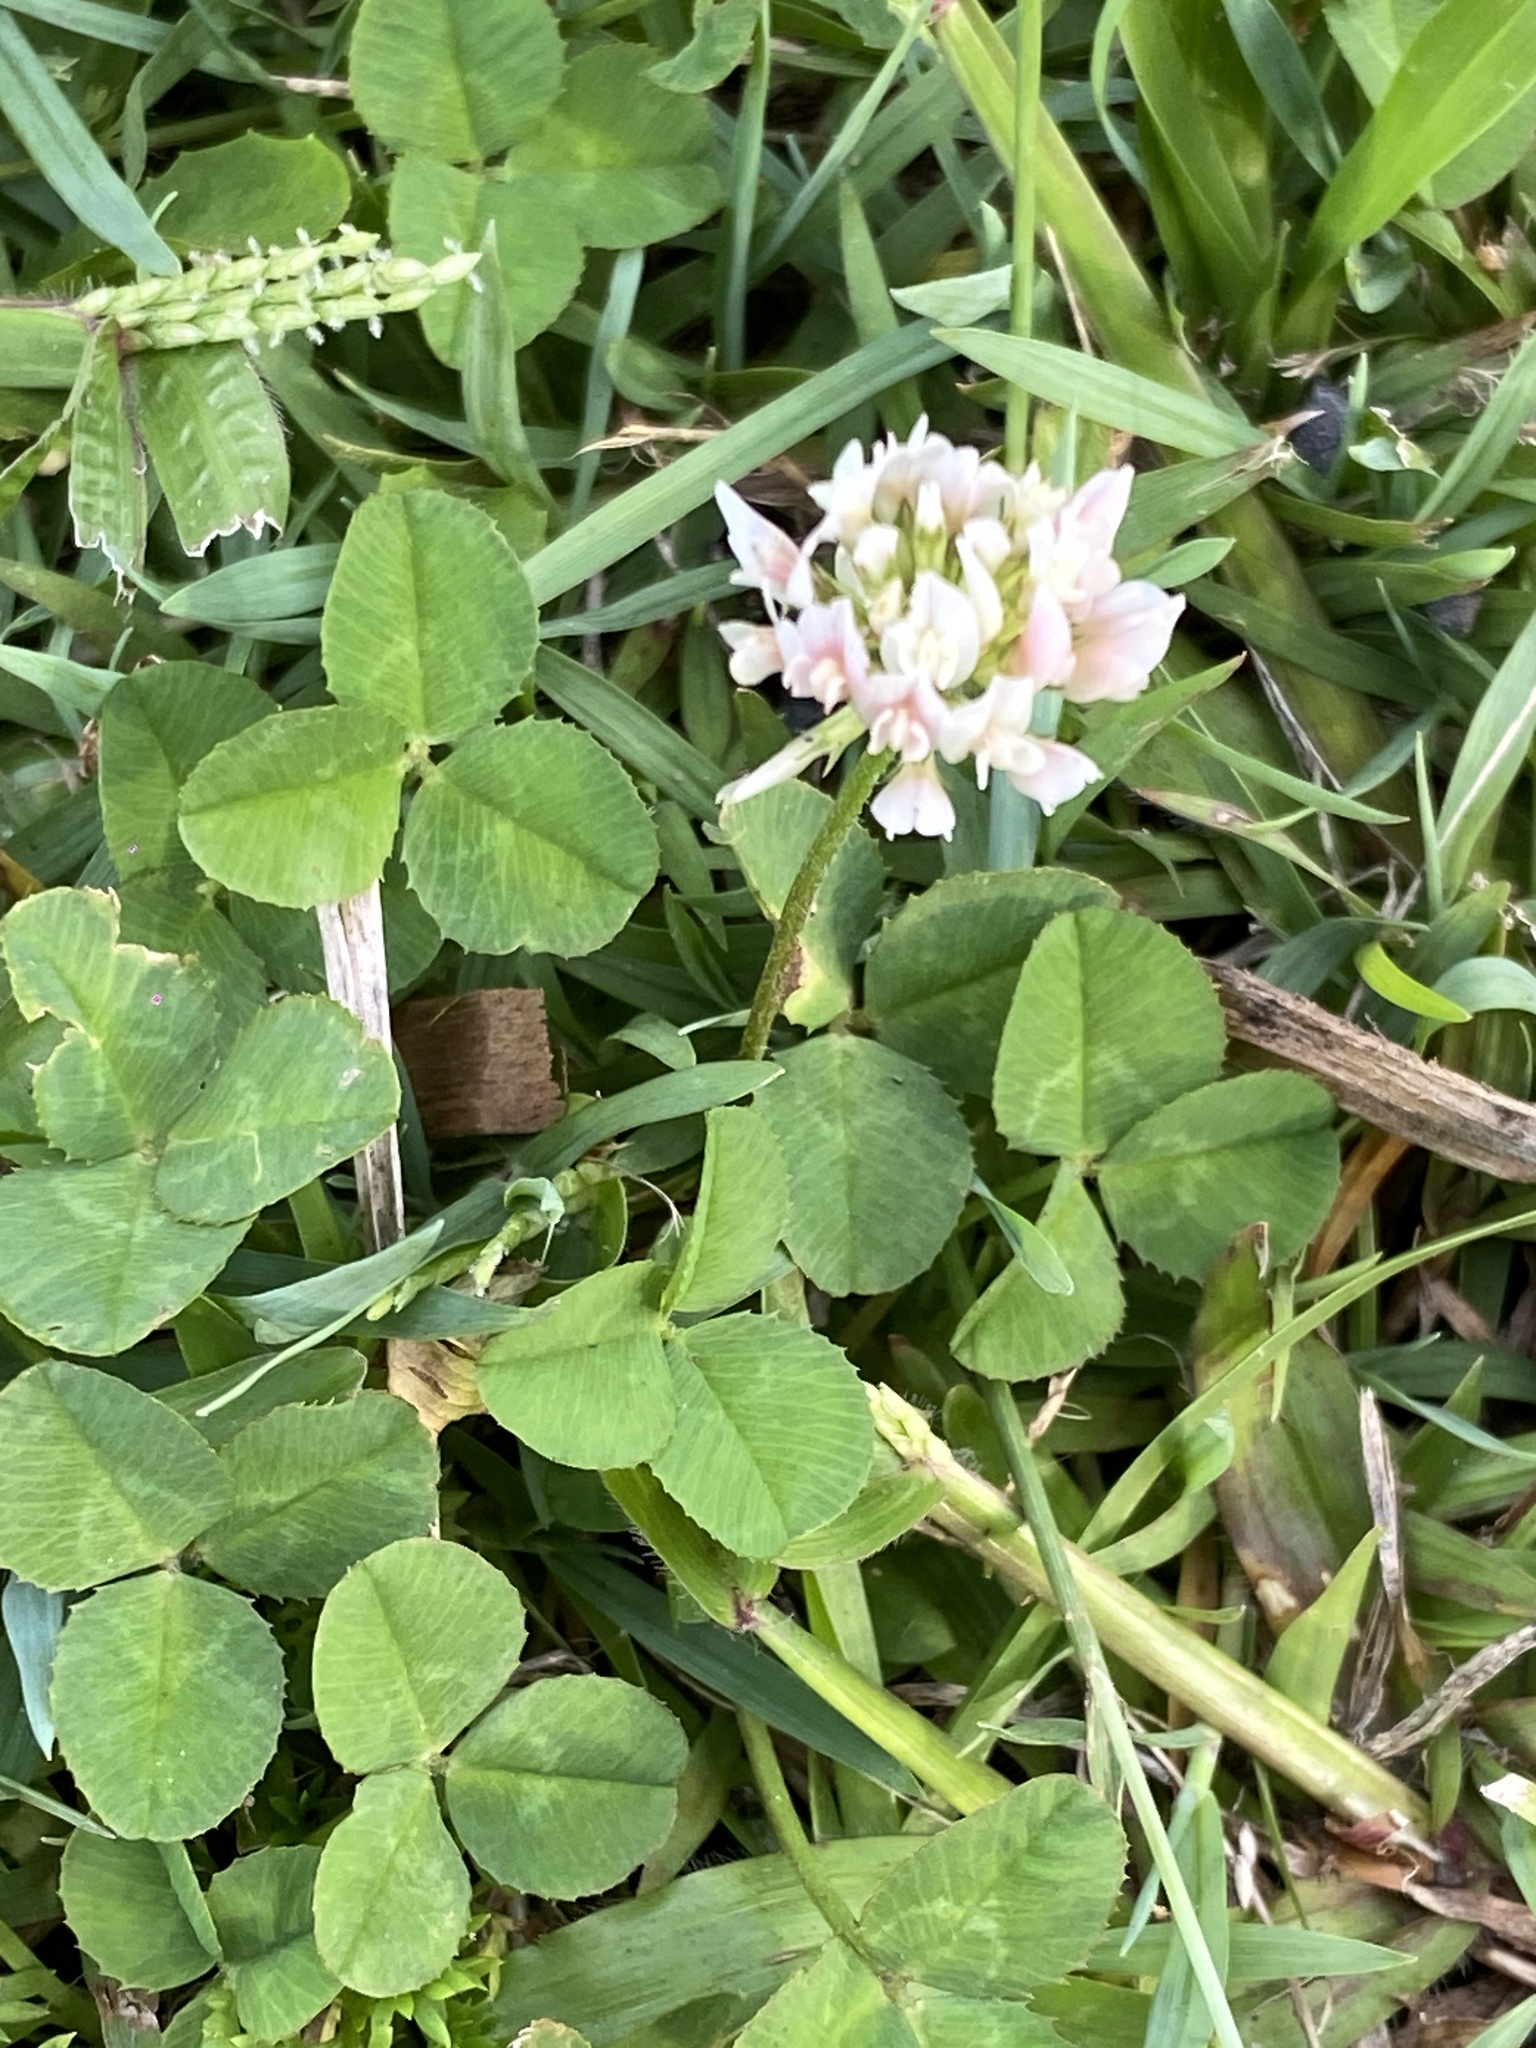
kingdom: Plantae
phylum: Tracheophyta
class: Magnoliopsida
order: Fabales
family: Fabaceae
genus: Trifolium
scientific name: Trifolium repens
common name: White clover
